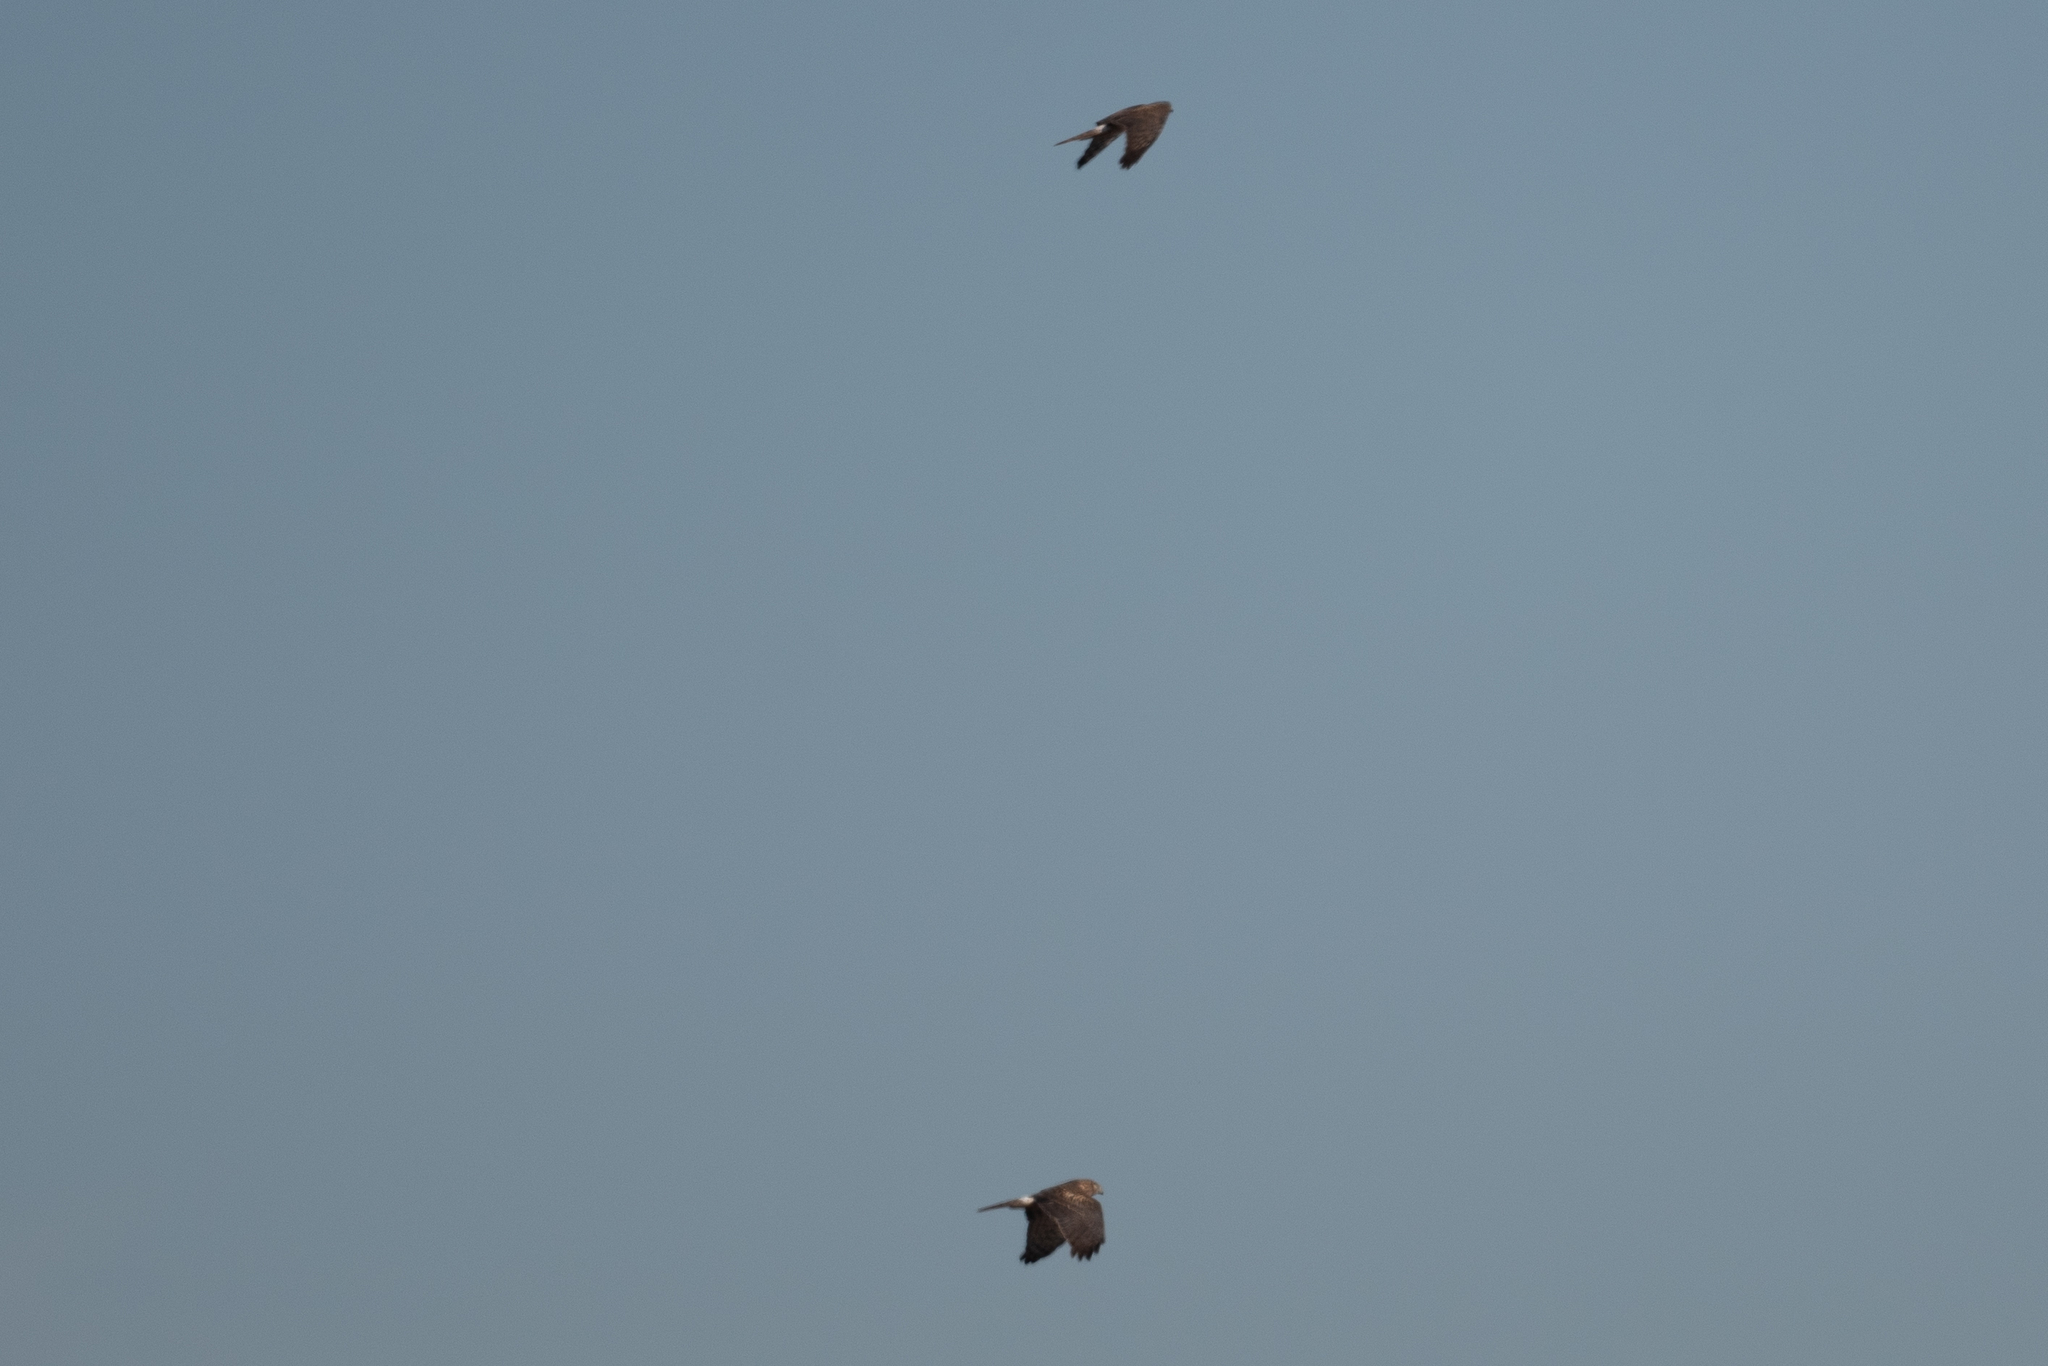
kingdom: Animalia
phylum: Chordata
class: Aves
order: Accipitriformes
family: Accipitridae
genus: Circus
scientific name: Circus cyaneus
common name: Hen harrier
